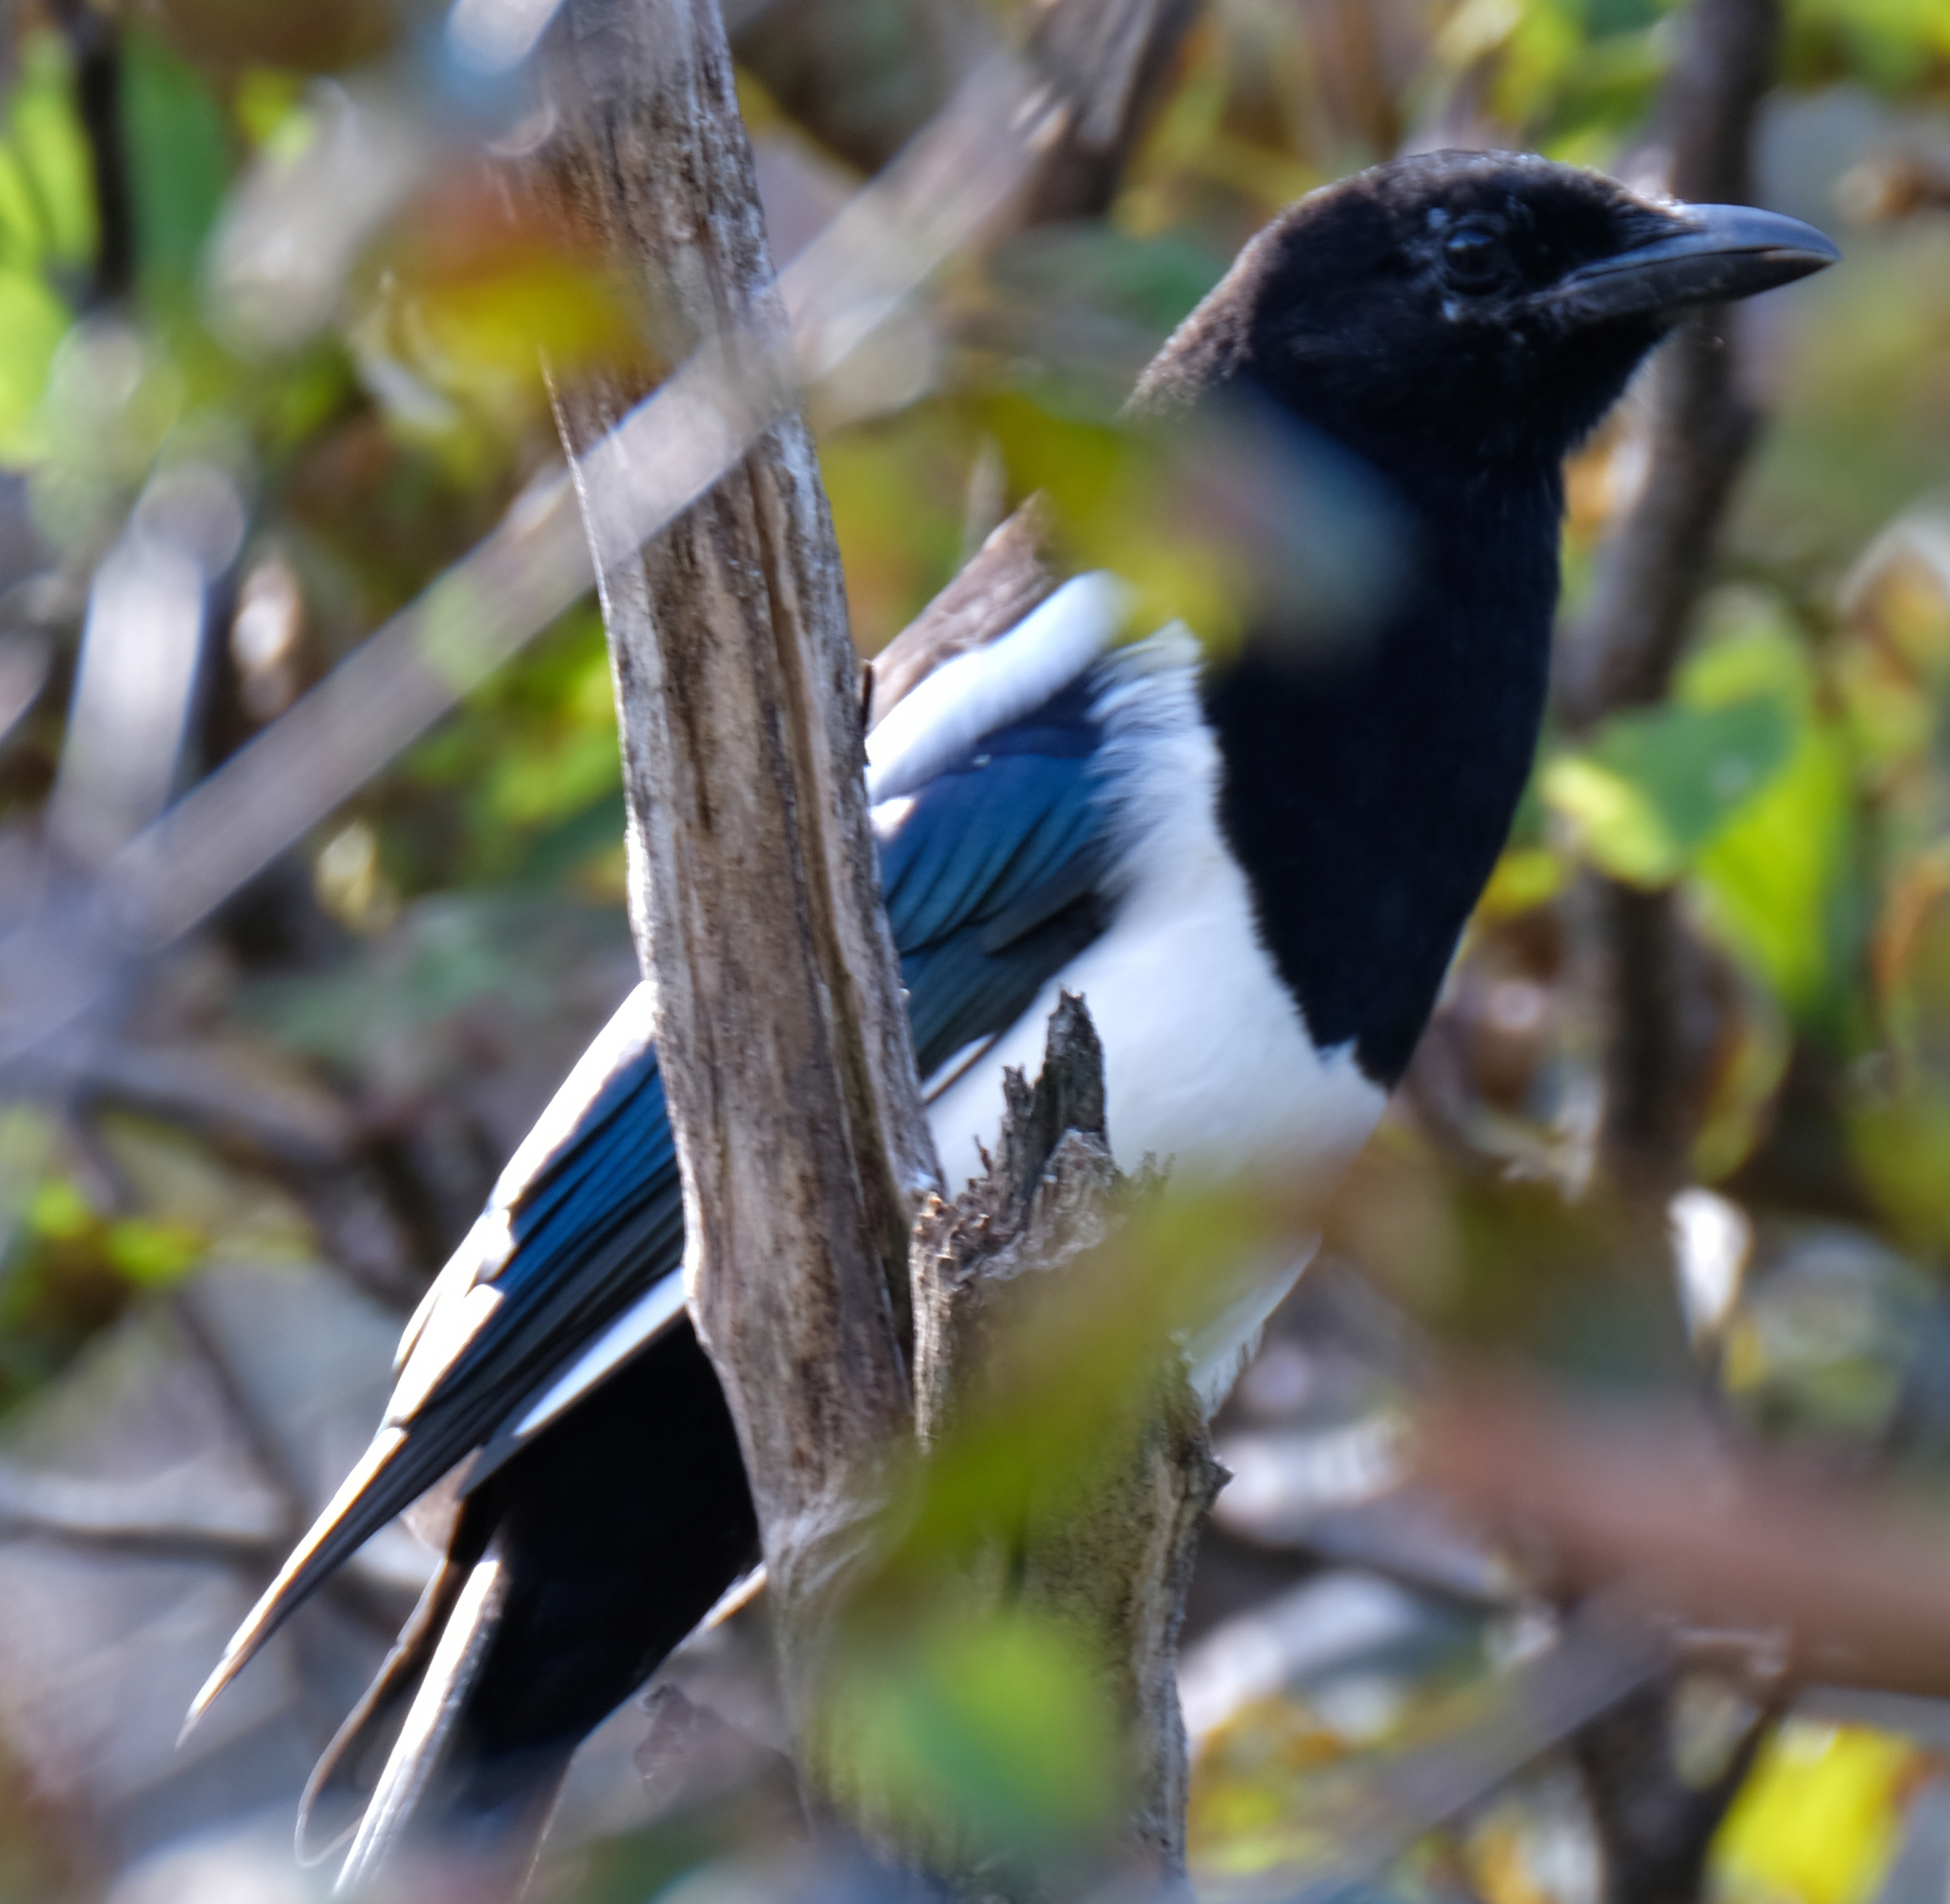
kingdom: Animalia
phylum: Chordata
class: Aves
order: Passeriformes
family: Corvidae
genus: Pica
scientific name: Pica hudsonia
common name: Black-billed magpie
